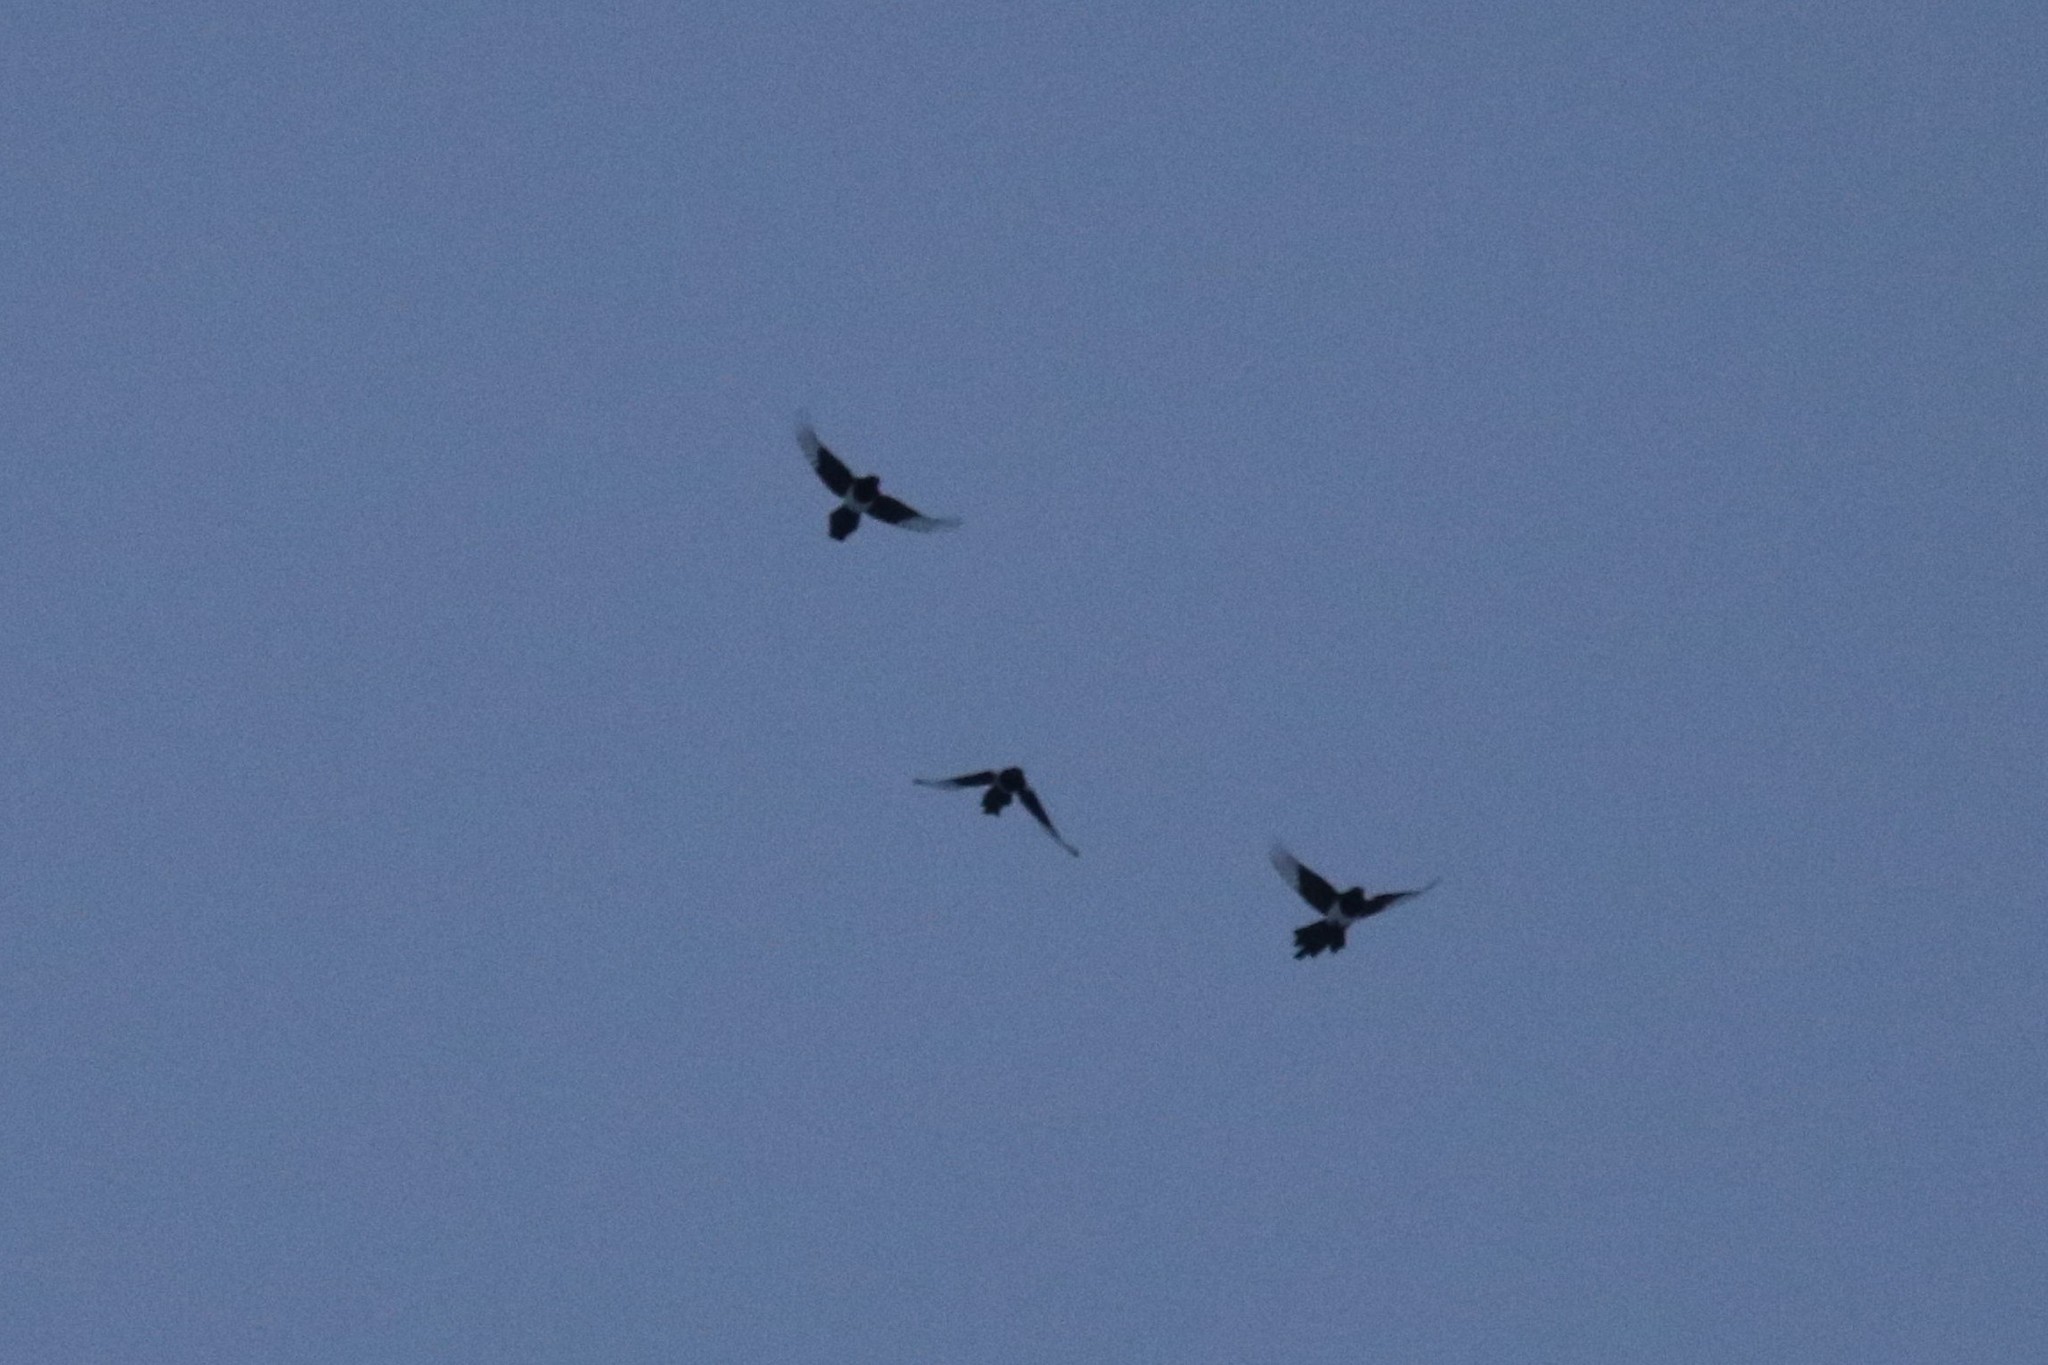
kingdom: Animalia
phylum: Chordata
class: Aves
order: Passeriformes
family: Corvidae
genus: Pica
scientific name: Pica pica
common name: Eurasian magpie
